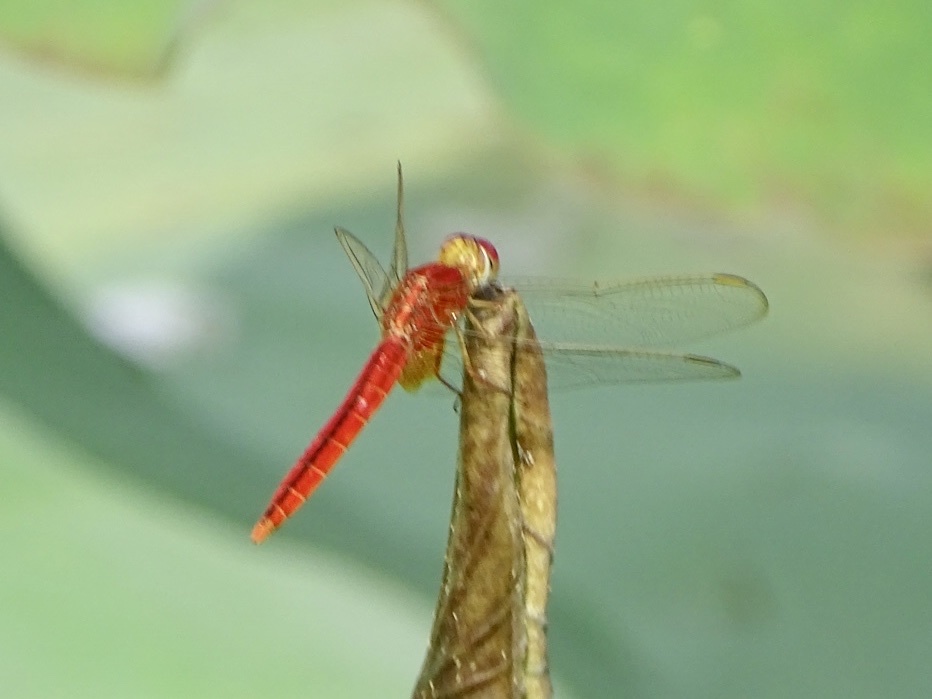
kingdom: Animalia
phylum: Arthropoda
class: Insecta
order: Odonata
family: Libellulidae
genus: Crocothemis
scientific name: Crocothemis servilia
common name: Scarlet skimmer
